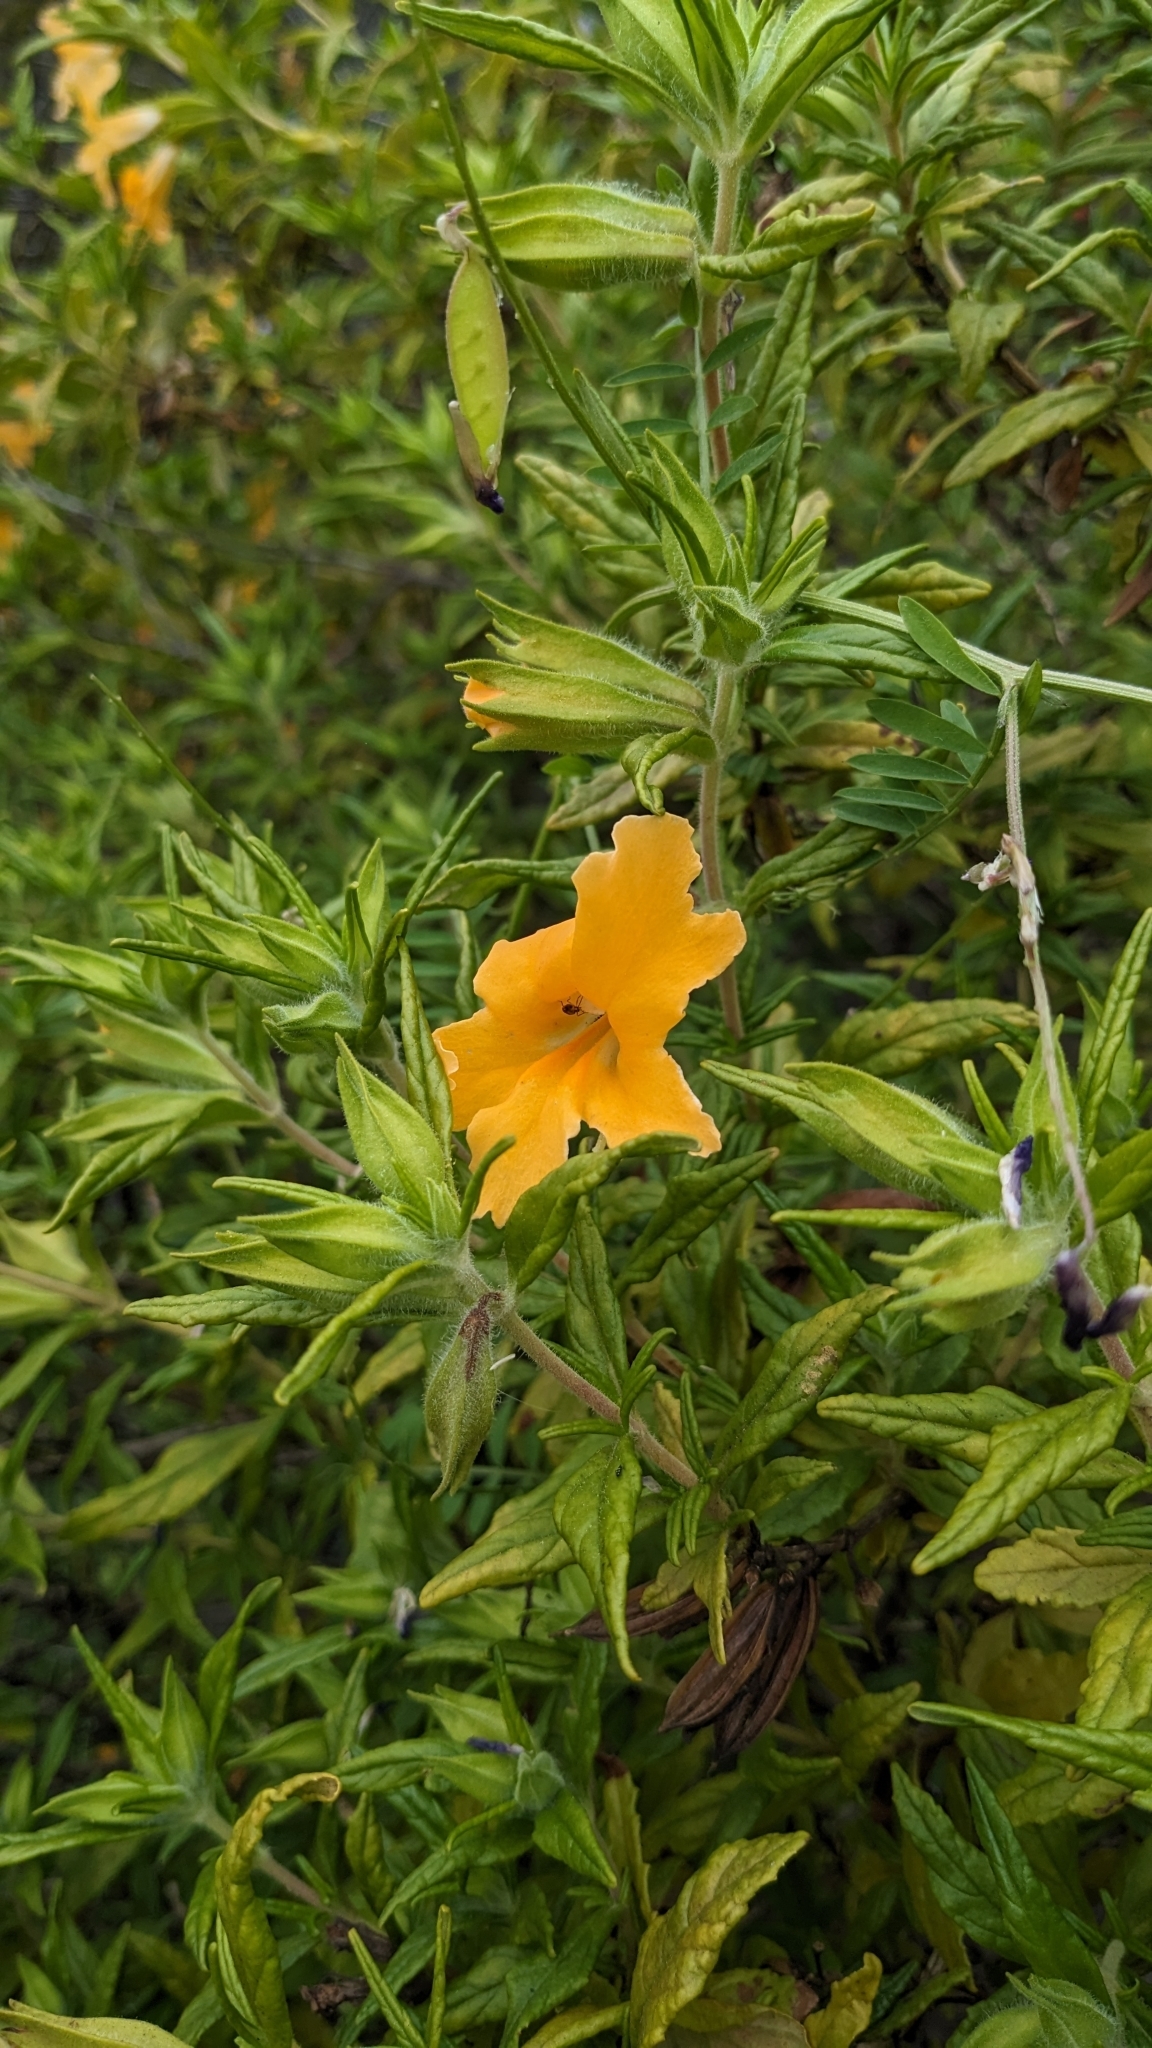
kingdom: Plantae
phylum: Tracheophyta
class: Magnoliopsida
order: Lamiales
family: Phrymaceae
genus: Diplacus
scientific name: Diplacus longiflorus
